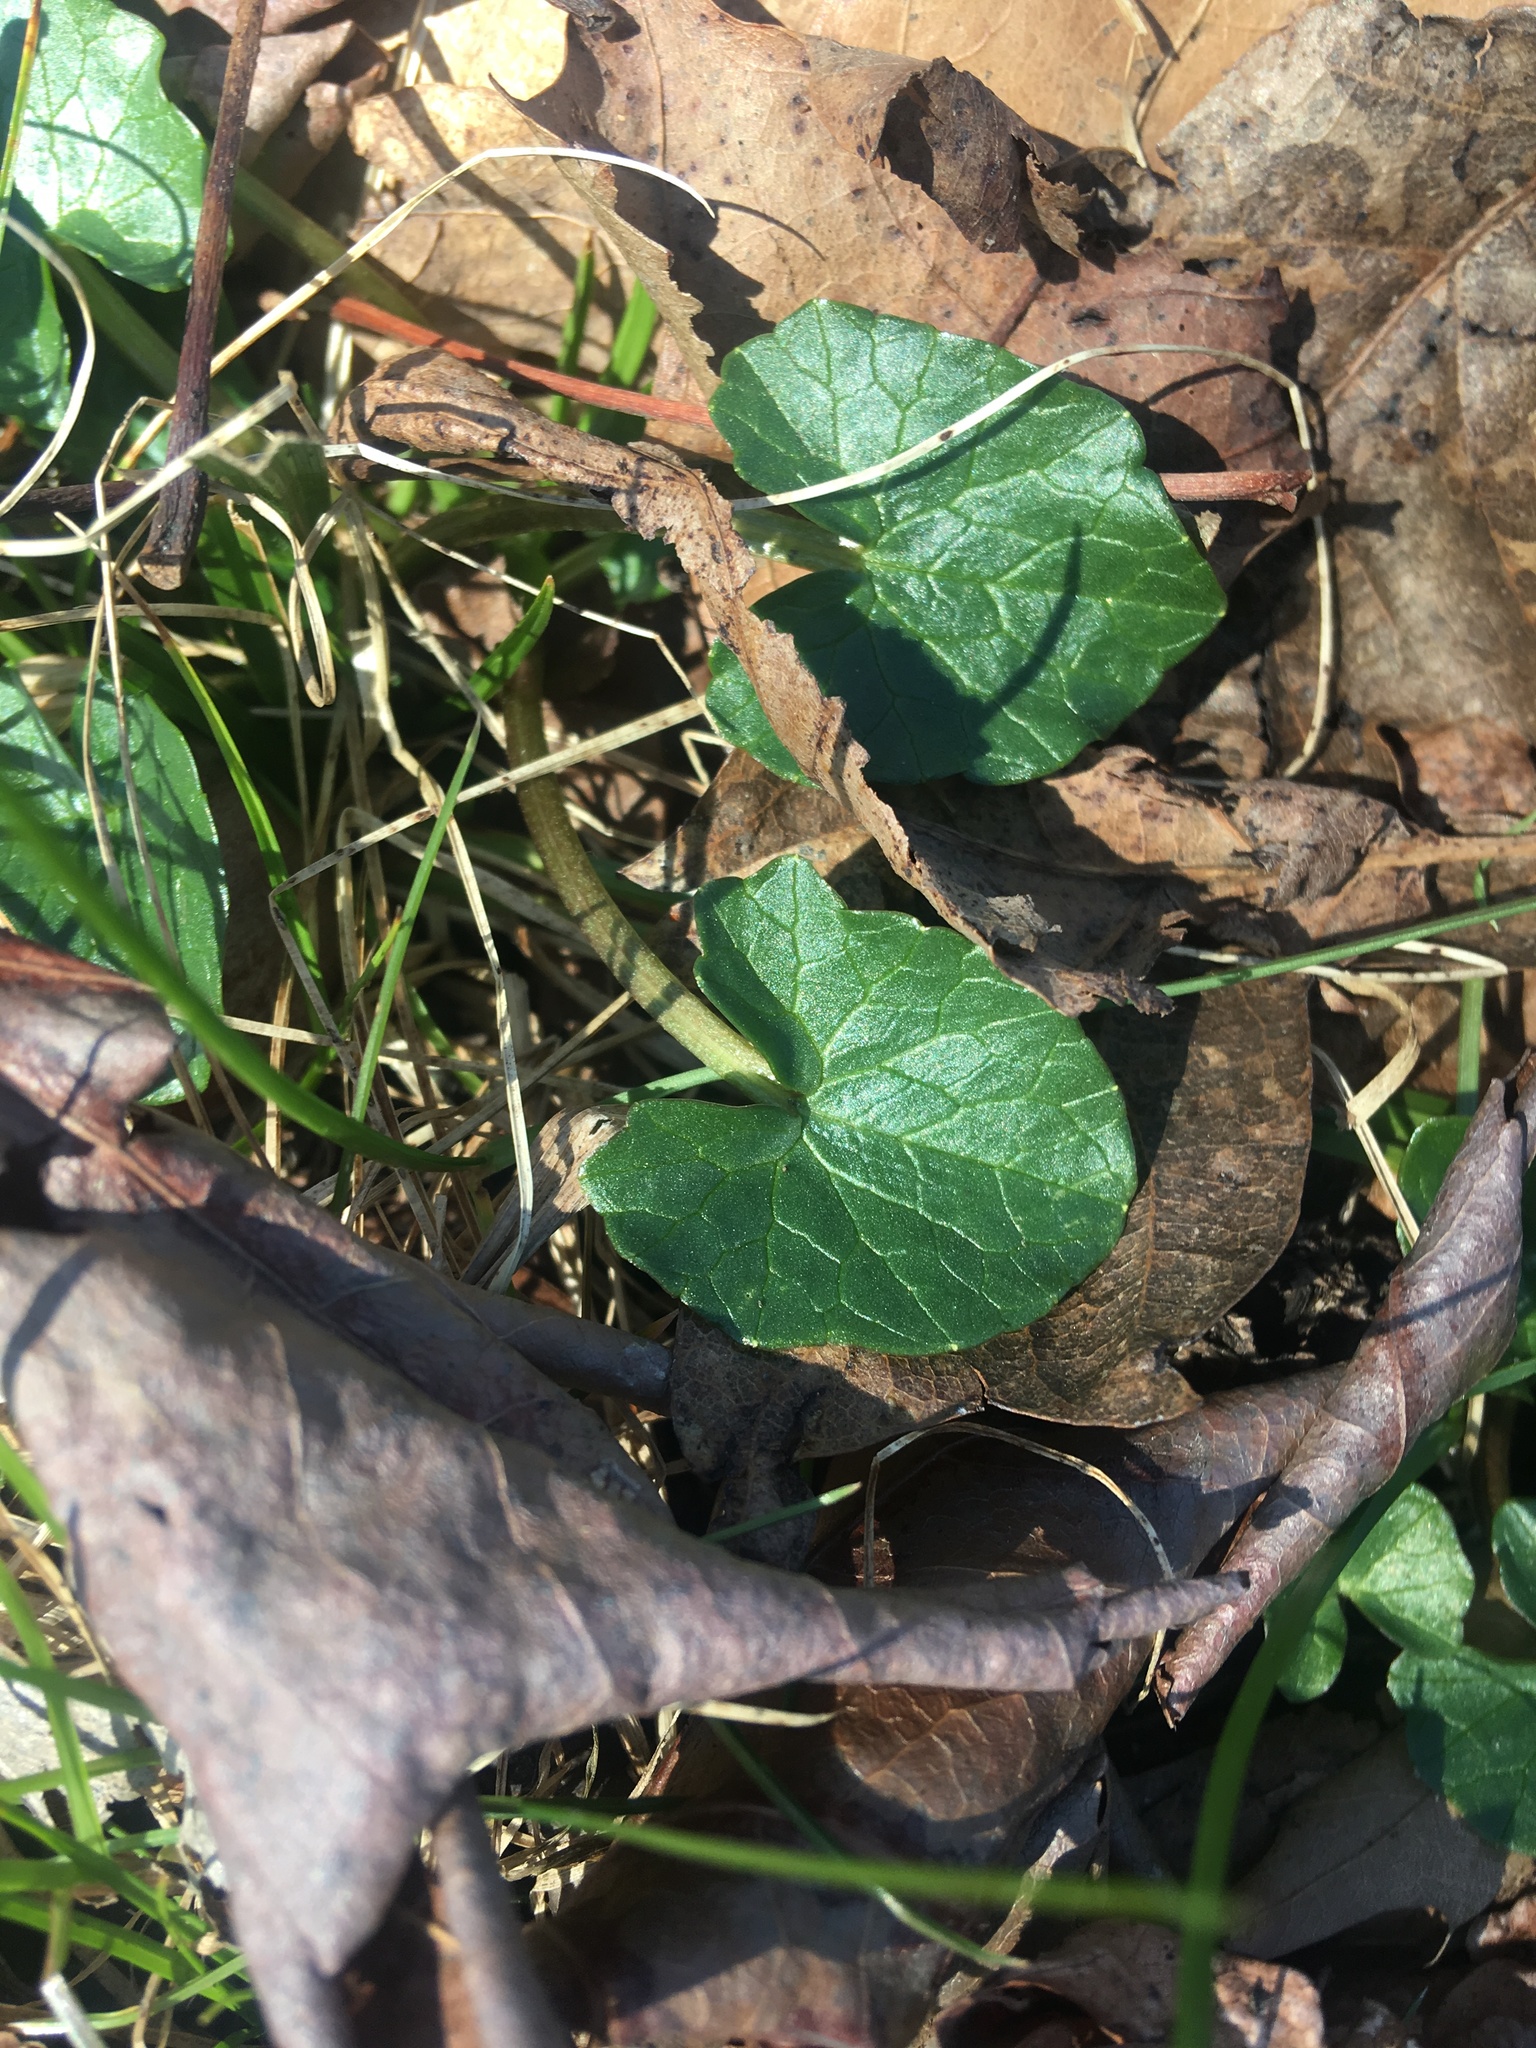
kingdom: Plantae
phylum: Tracheophyta
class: Magnoliopsida
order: Ranunculales
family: Ranunculaceae
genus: Ficaria
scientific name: Ficaria verna
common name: Lesser celandine
